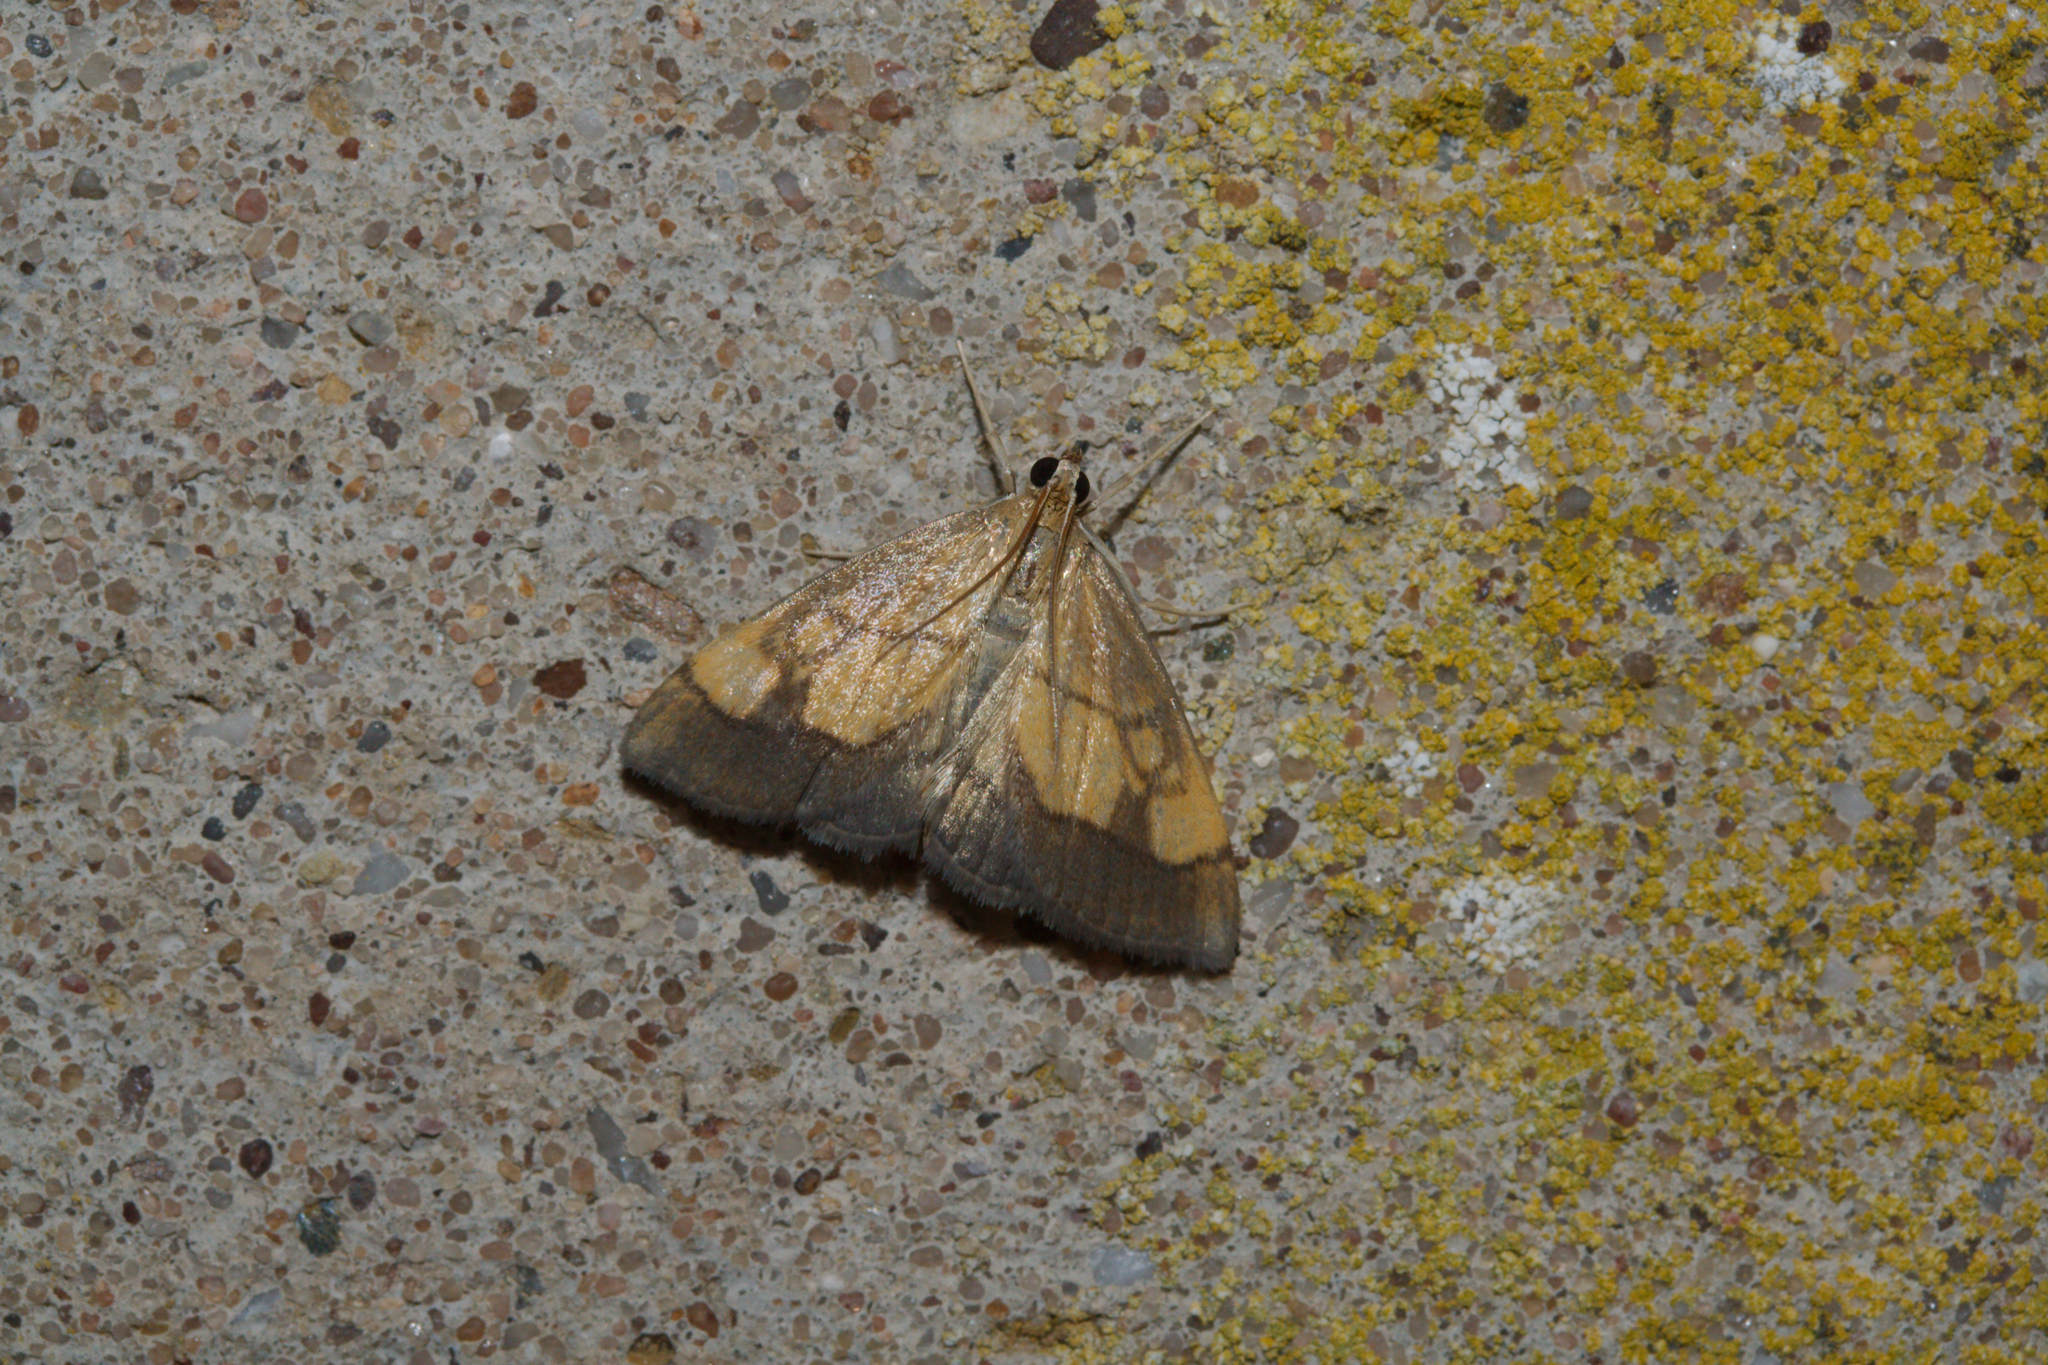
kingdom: Animalia
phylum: Arthropoda
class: Insecta
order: Lepidoptera
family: Crambidae
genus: Evergestis
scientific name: Evergestis limbata
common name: Dark bordered pearl
